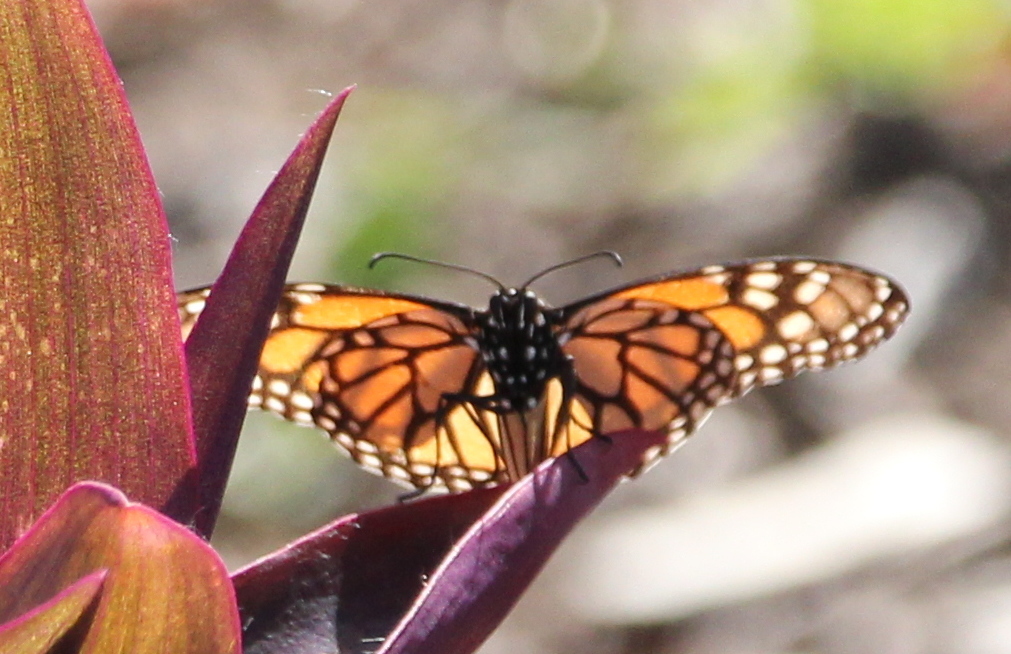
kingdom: Animalia
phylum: Arthropoda
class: Insecta
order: Lepidoptera
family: Nymphalidae
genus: Danaus
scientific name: Danaus plexippus
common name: Monarch
